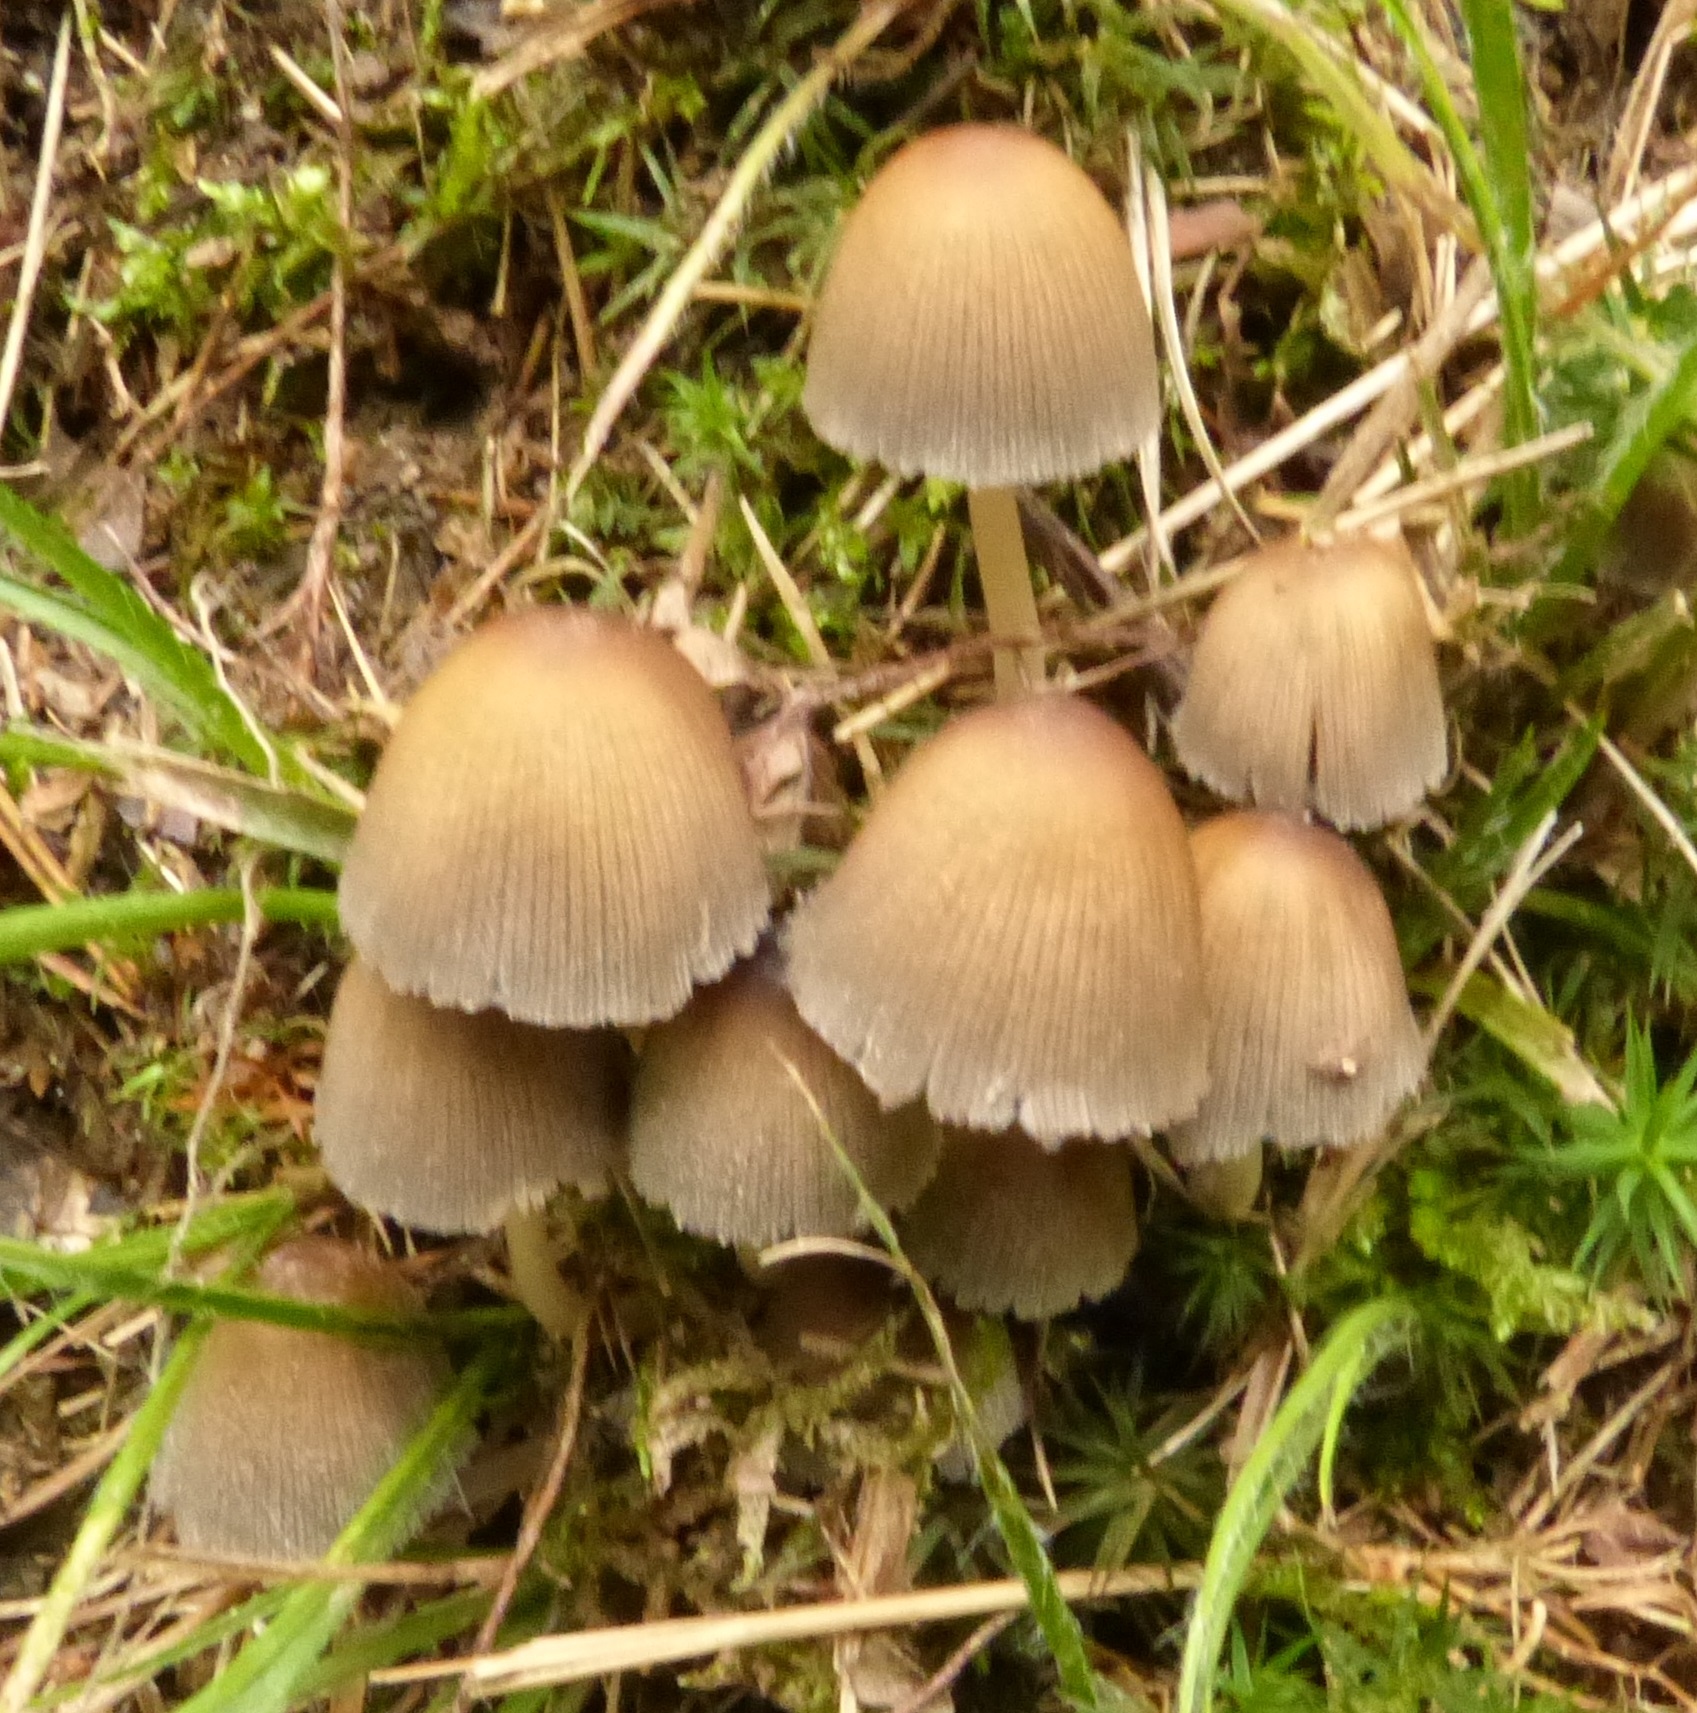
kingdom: Fungi
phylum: Basidiomycota
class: Agaricomycetes
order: Agaricales
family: Psathyrellaceae
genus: Coprinellus
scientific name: Coprinellus micaceus
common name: Glistening ink-cap
